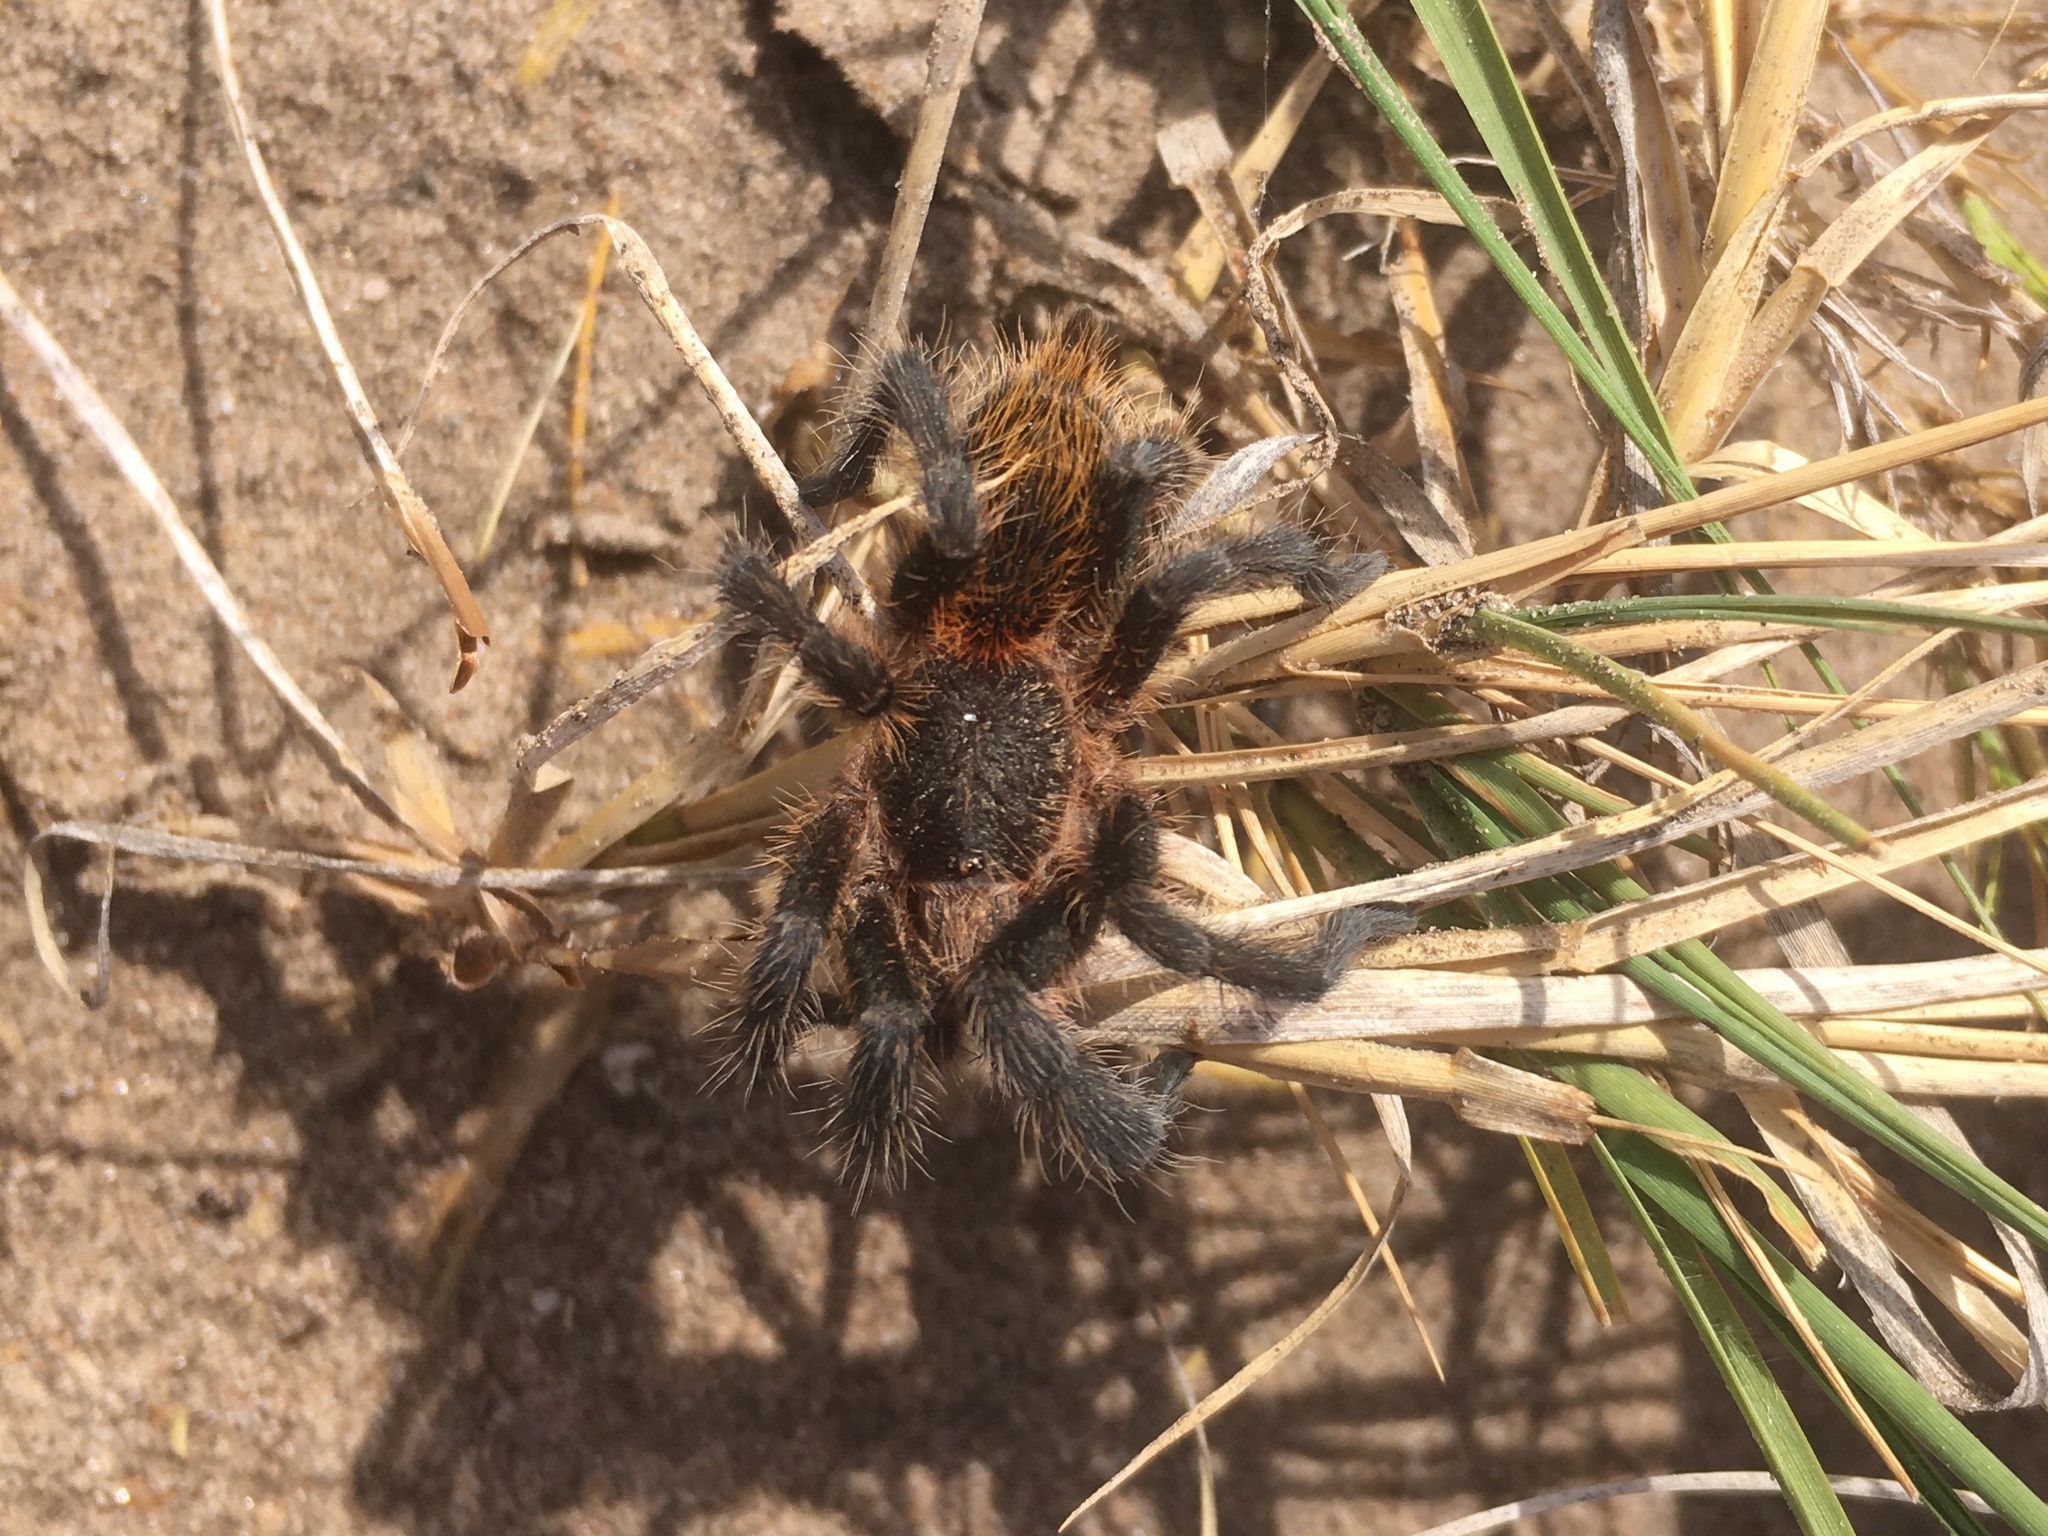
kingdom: Animalia
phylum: Arthropoda
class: Arachnida
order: Araneae
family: Theraphosidae
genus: Plesiopelma
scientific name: Plesiopelma longisternale
